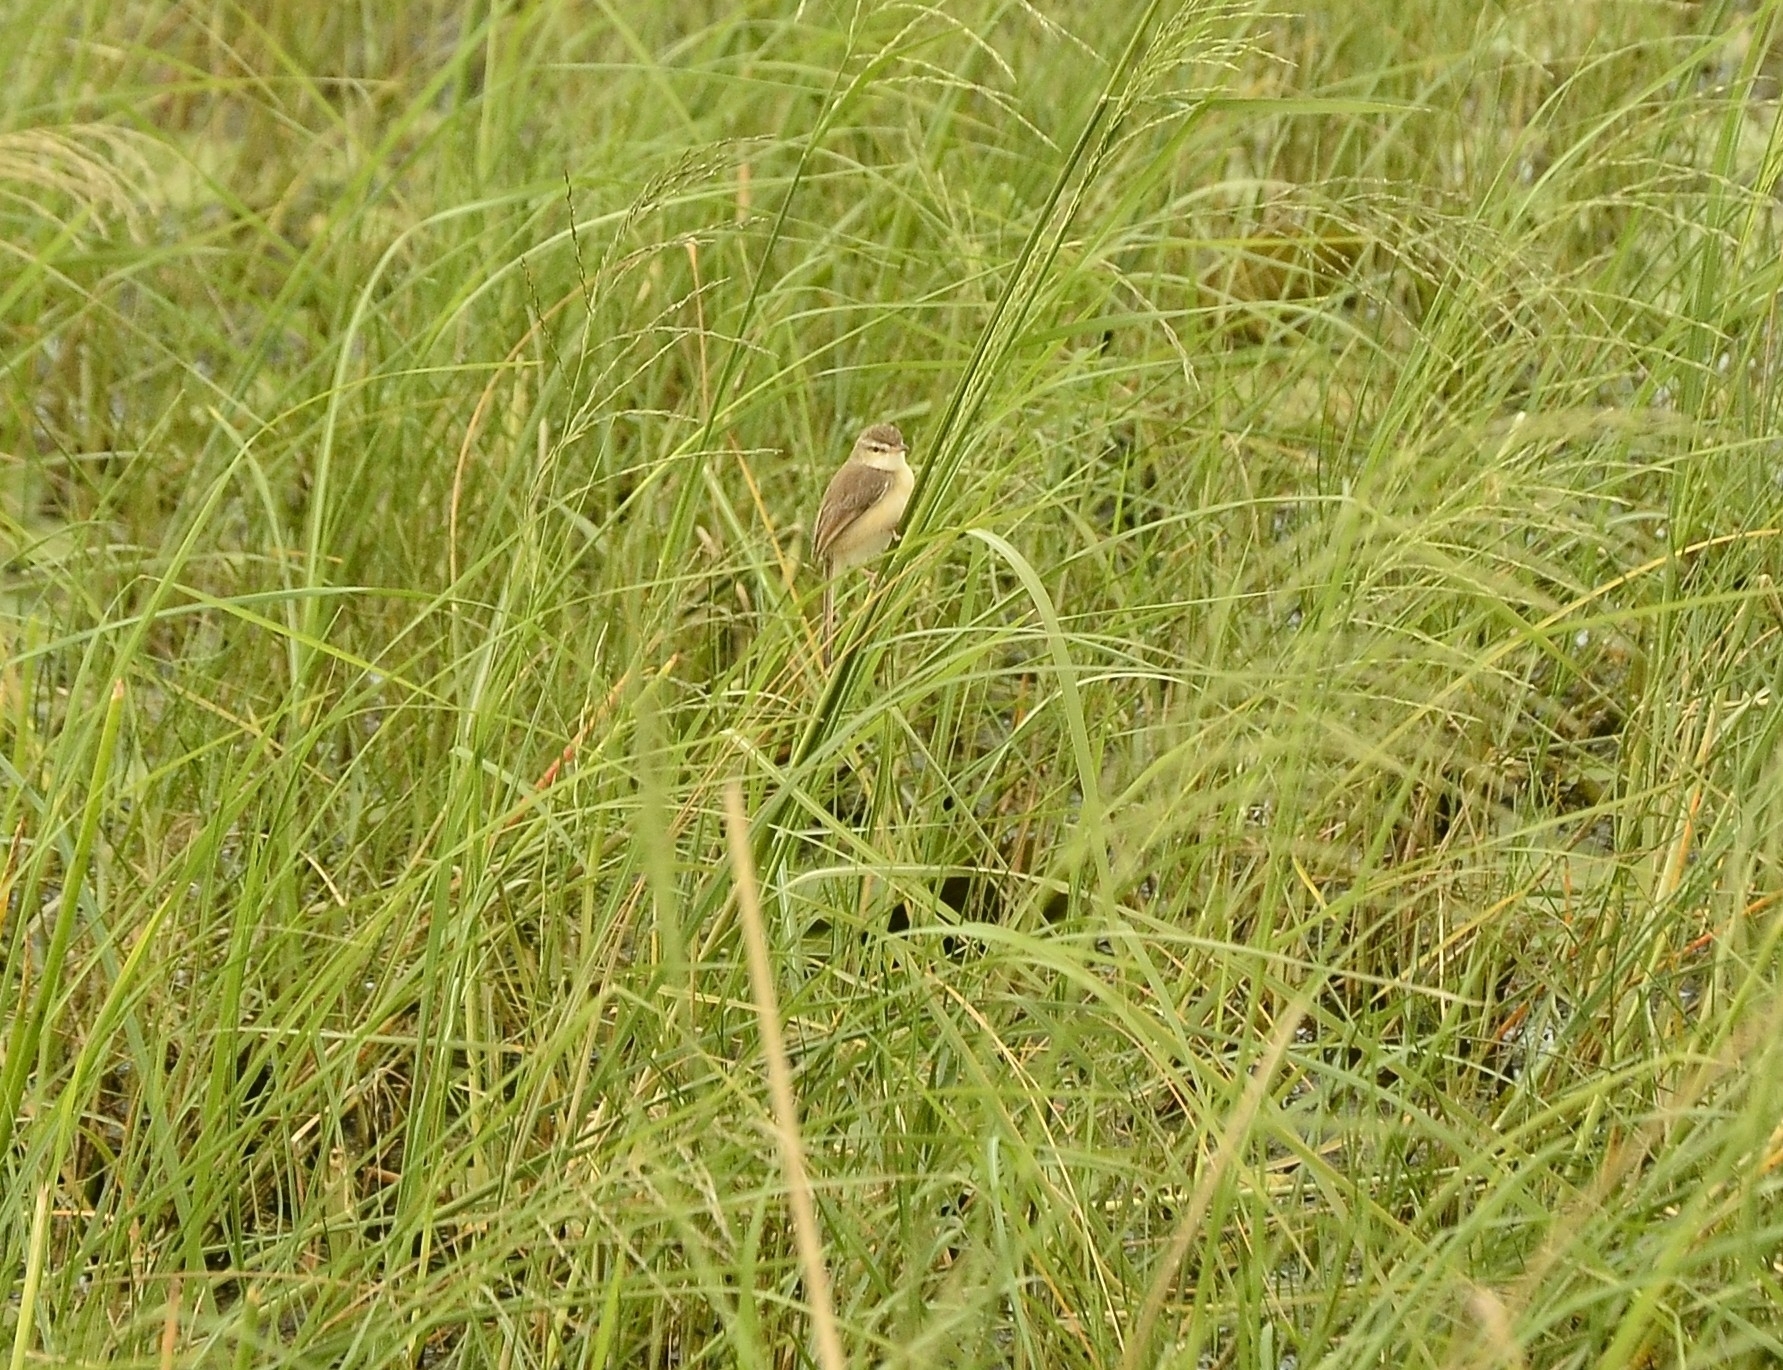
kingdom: Animalia
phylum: Chordata
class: Aves
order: Passeriformes
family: Cisticolidae
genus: Prinia
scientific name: Prinia inornata
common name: Plain prinia
